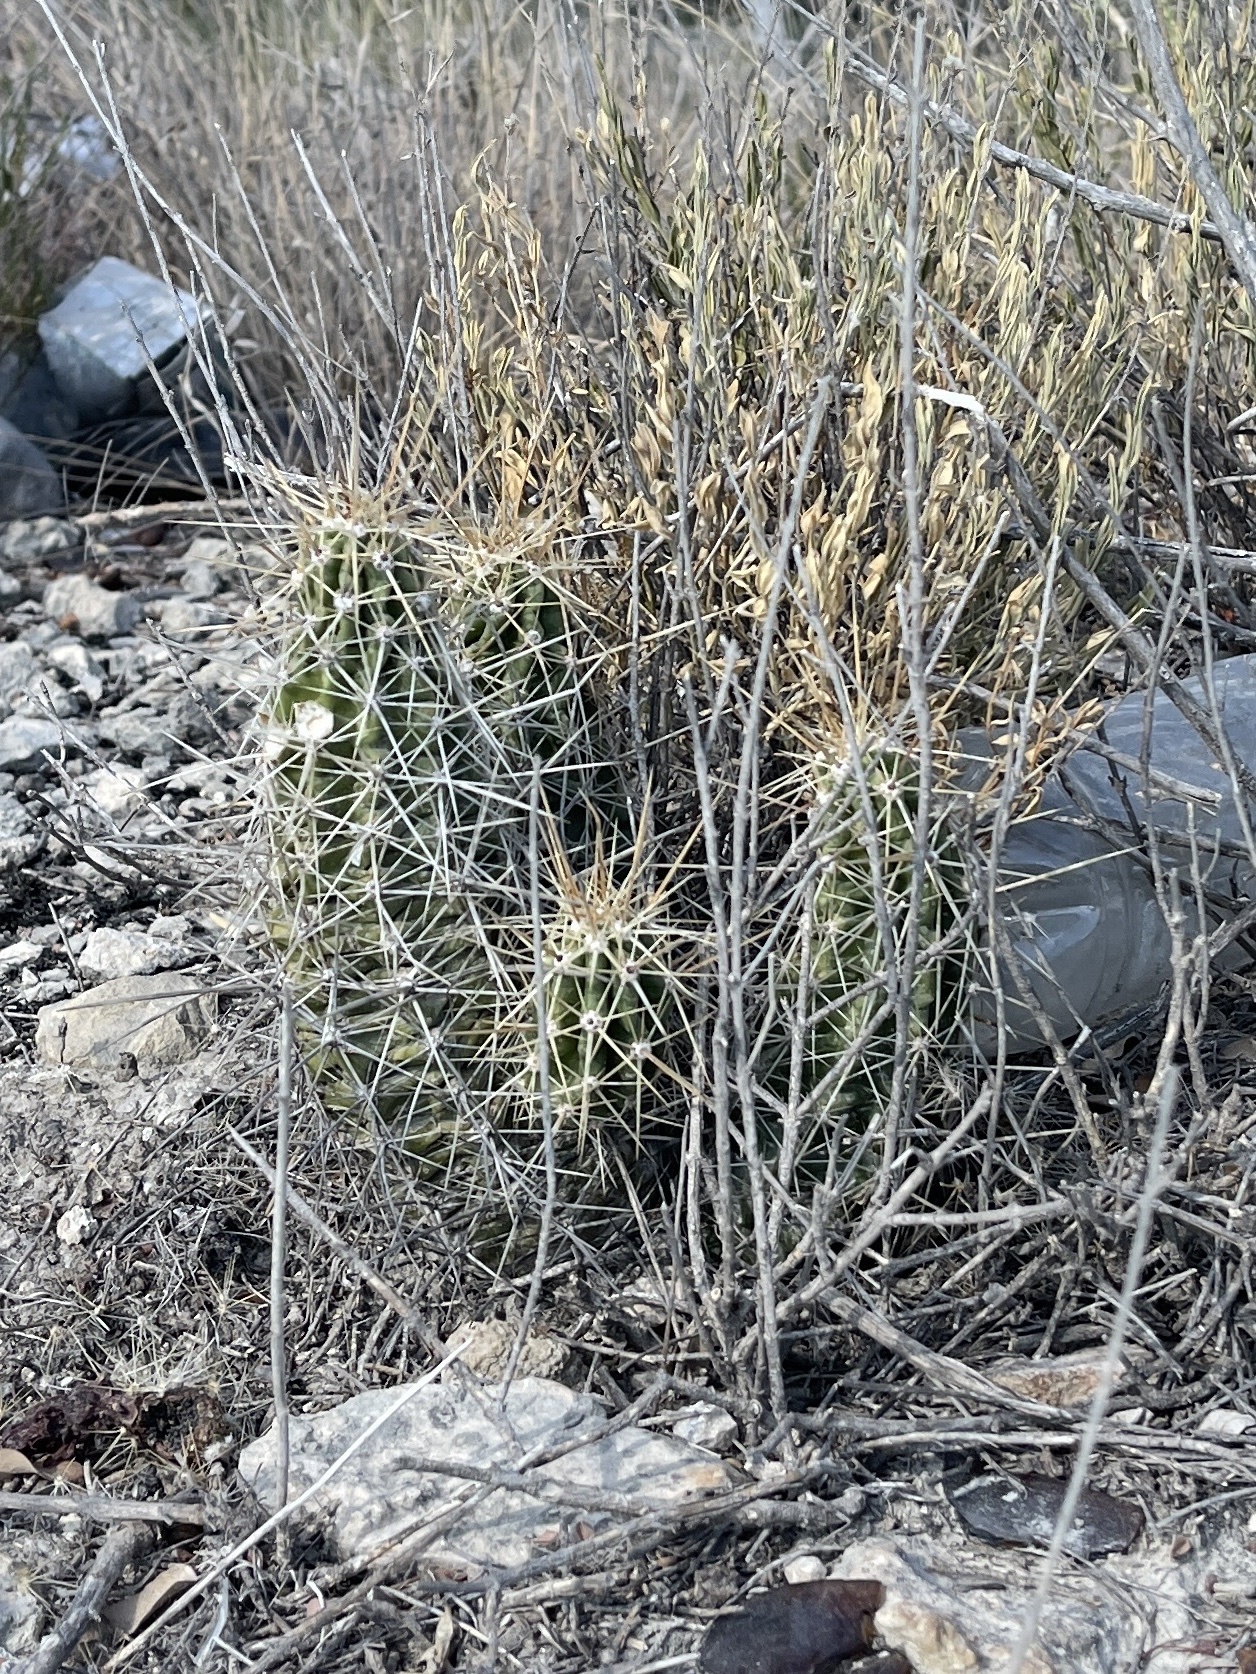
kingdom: Plantae
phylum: Tracheophyta
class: Magnoliopsida
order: Caryophyllales
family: Cactaceae
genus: Echinocereus
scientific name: Echinocereus enneacanthus
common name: Pitaya
